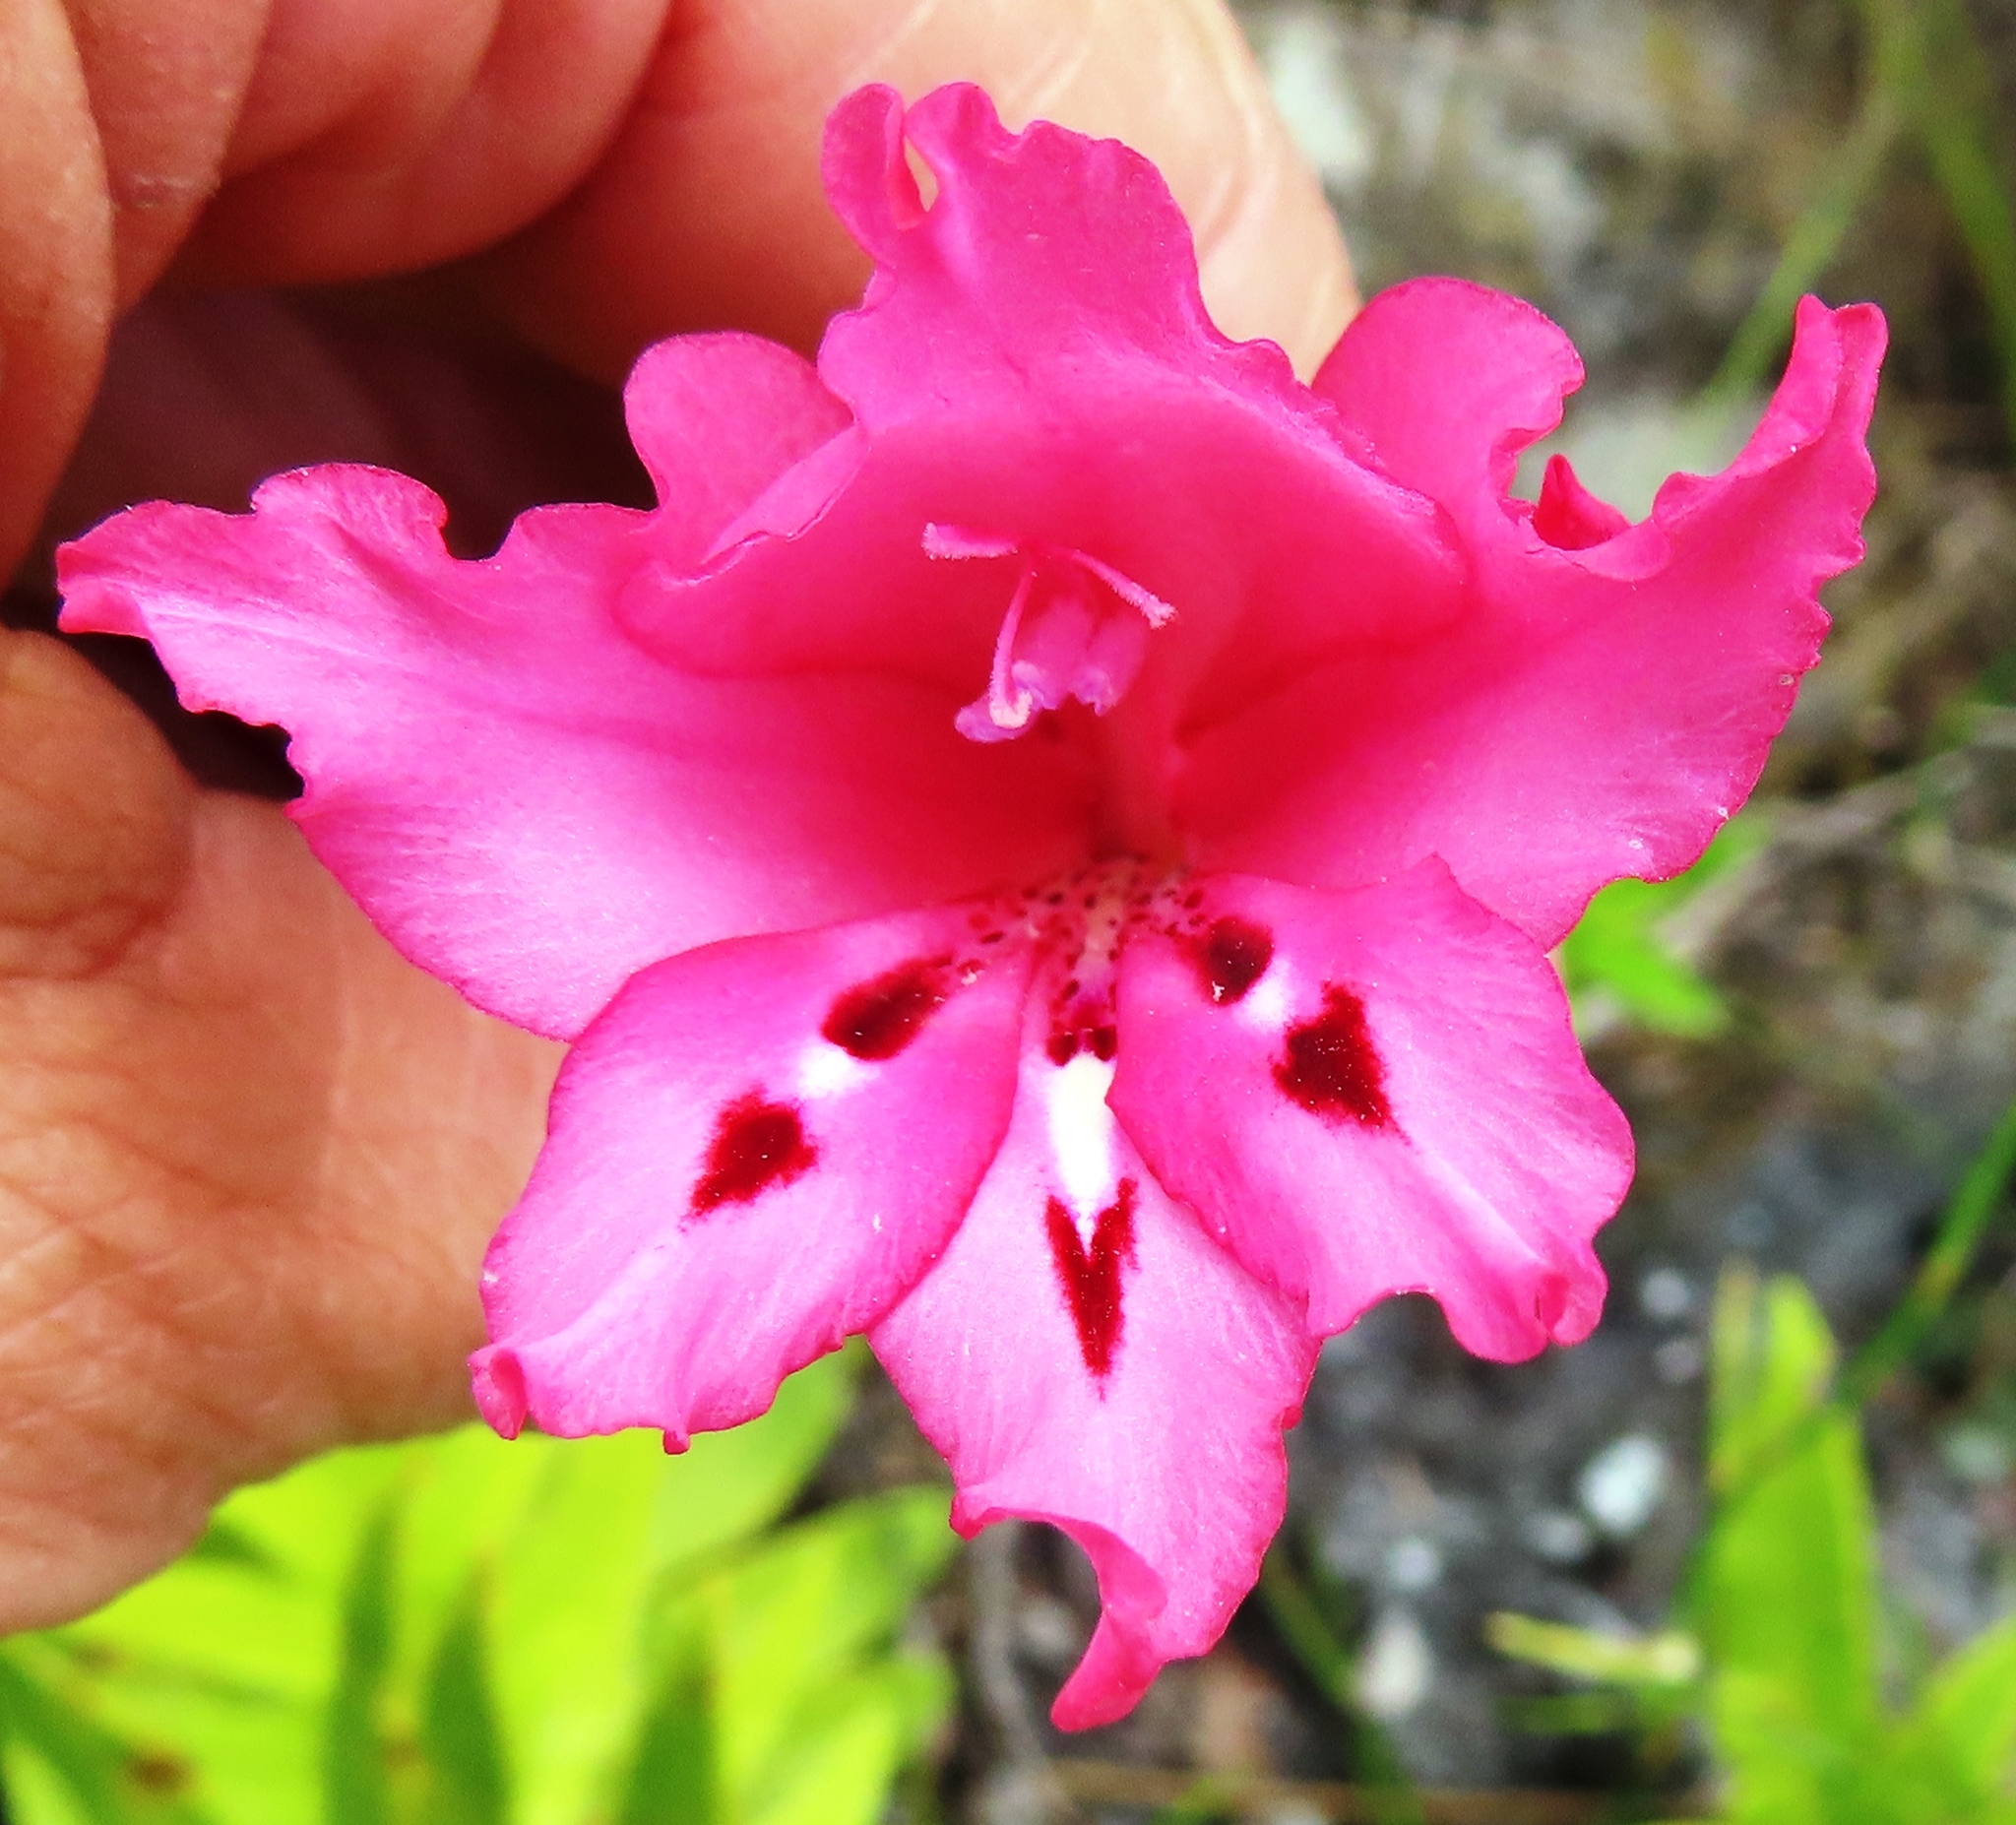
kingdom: Plantae
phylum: Tracheophyta
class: Liliopsida
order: Asparagales
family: Iridaceae
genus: Gladiolus
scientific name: Gladiolus crispulatus
